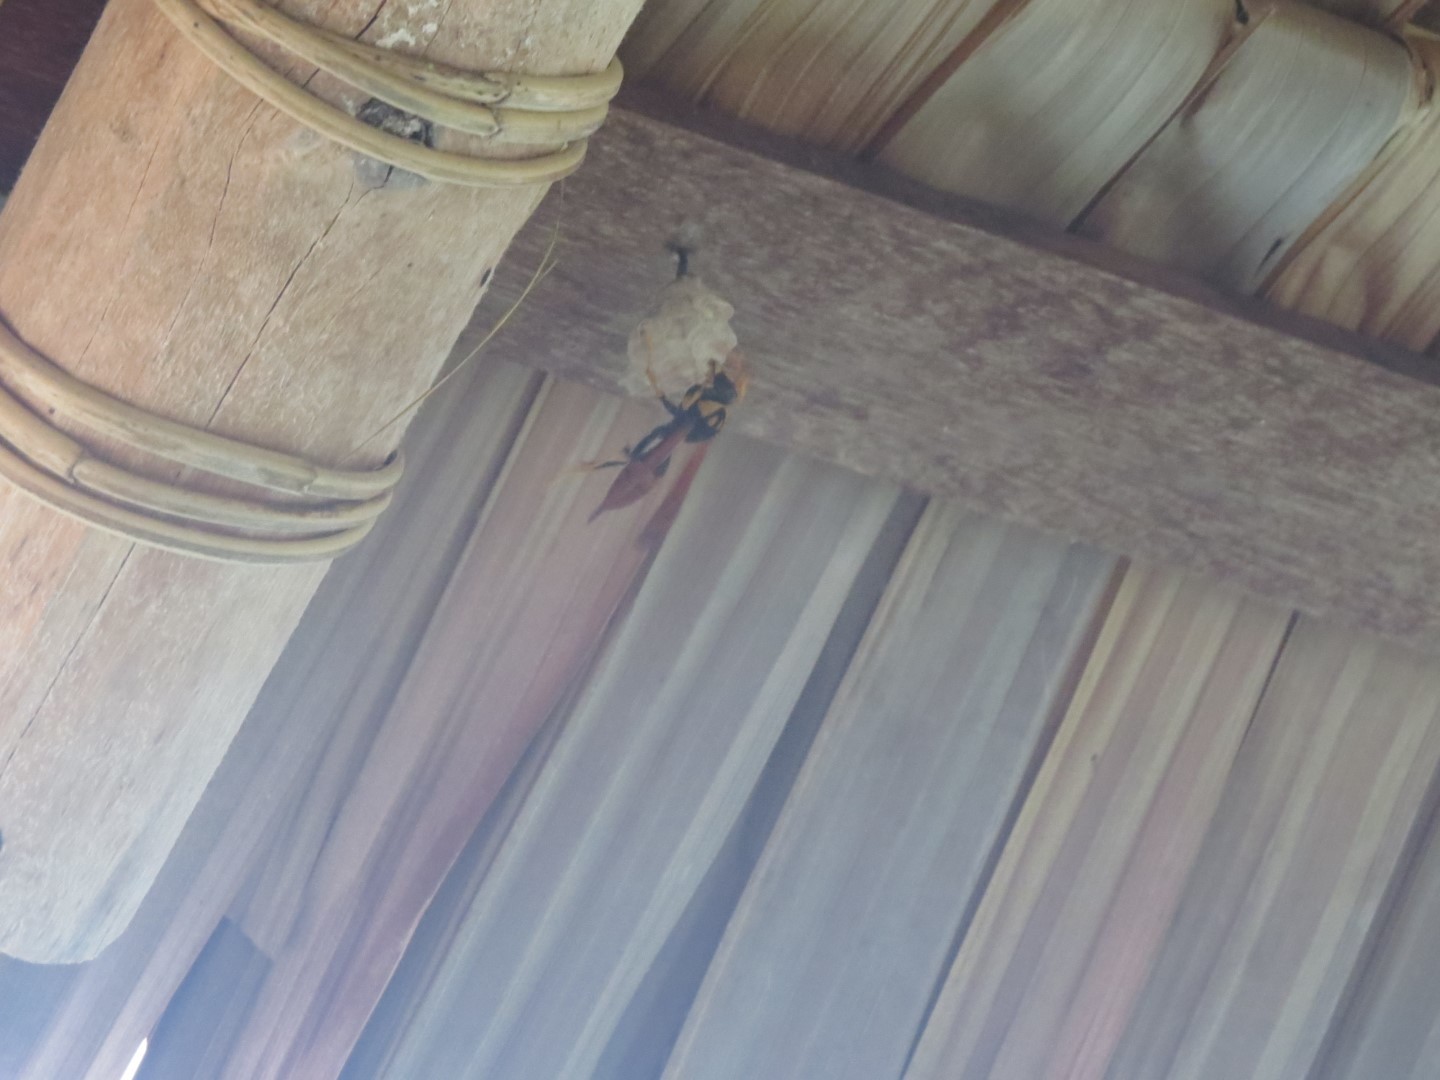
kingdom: Animalia
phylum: Arthropoda
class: Insecta
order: Hymenoptera
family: Eumenidae
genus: Polistes
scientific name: Polistes tepidus
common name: Paper wasp
